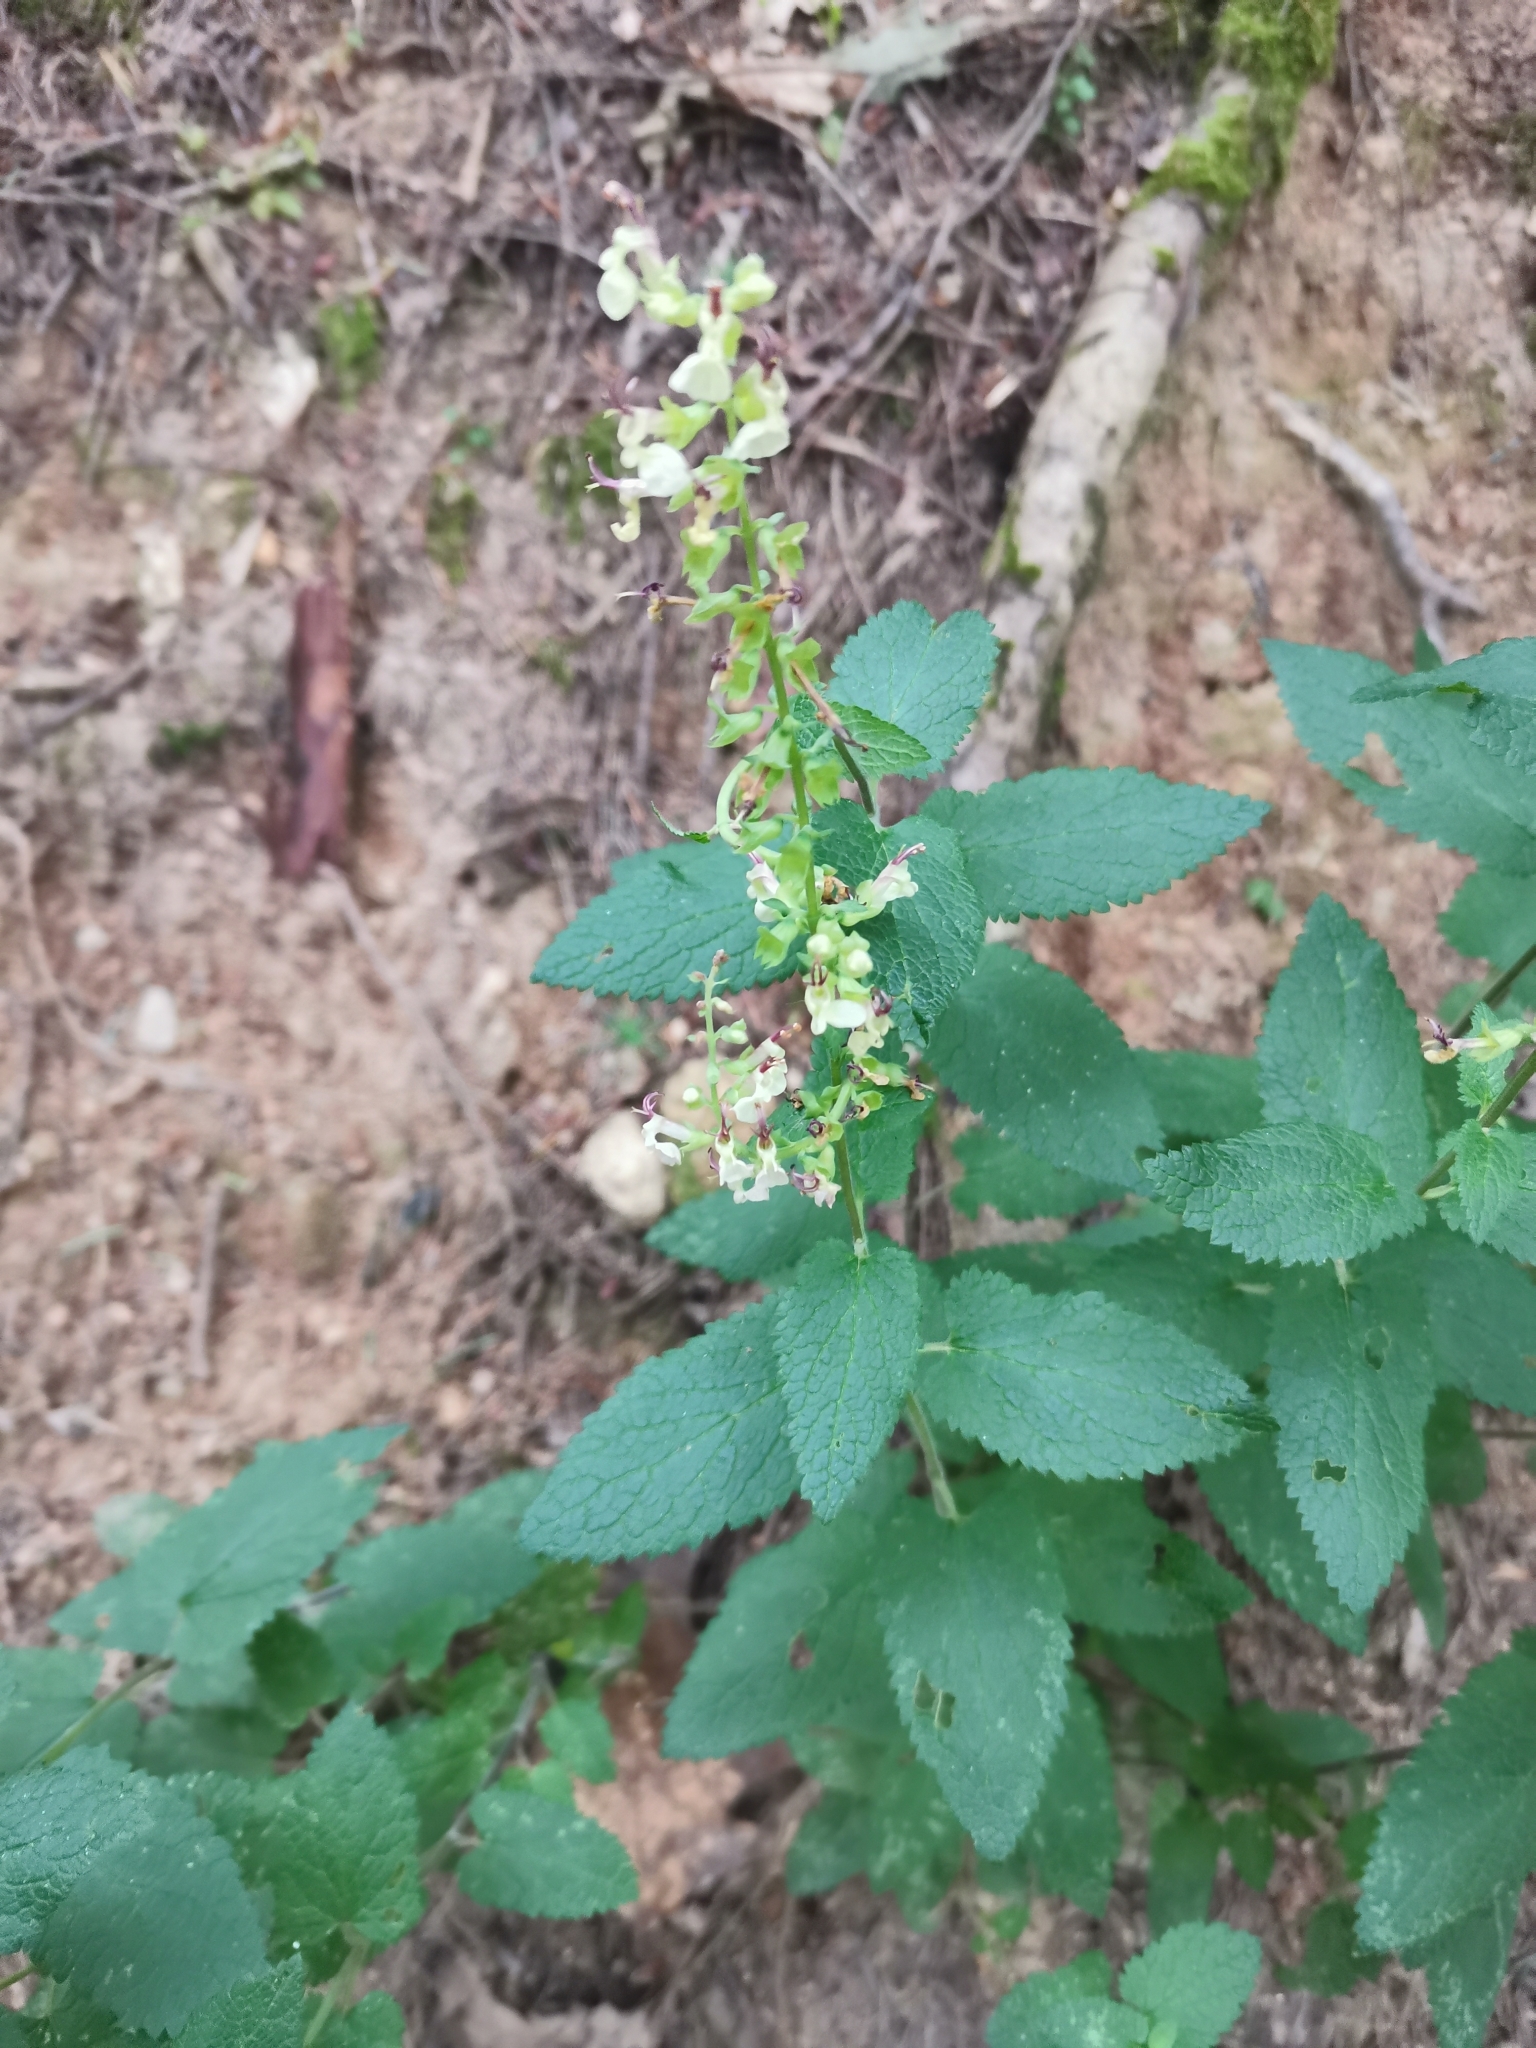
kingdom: Plantae
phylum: Tracheophyta
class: Magnoliopsida
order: Lamiales
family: Lamiaceae
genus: Teucrium
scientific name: Teucrium scorodonia
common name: Woodland germander
